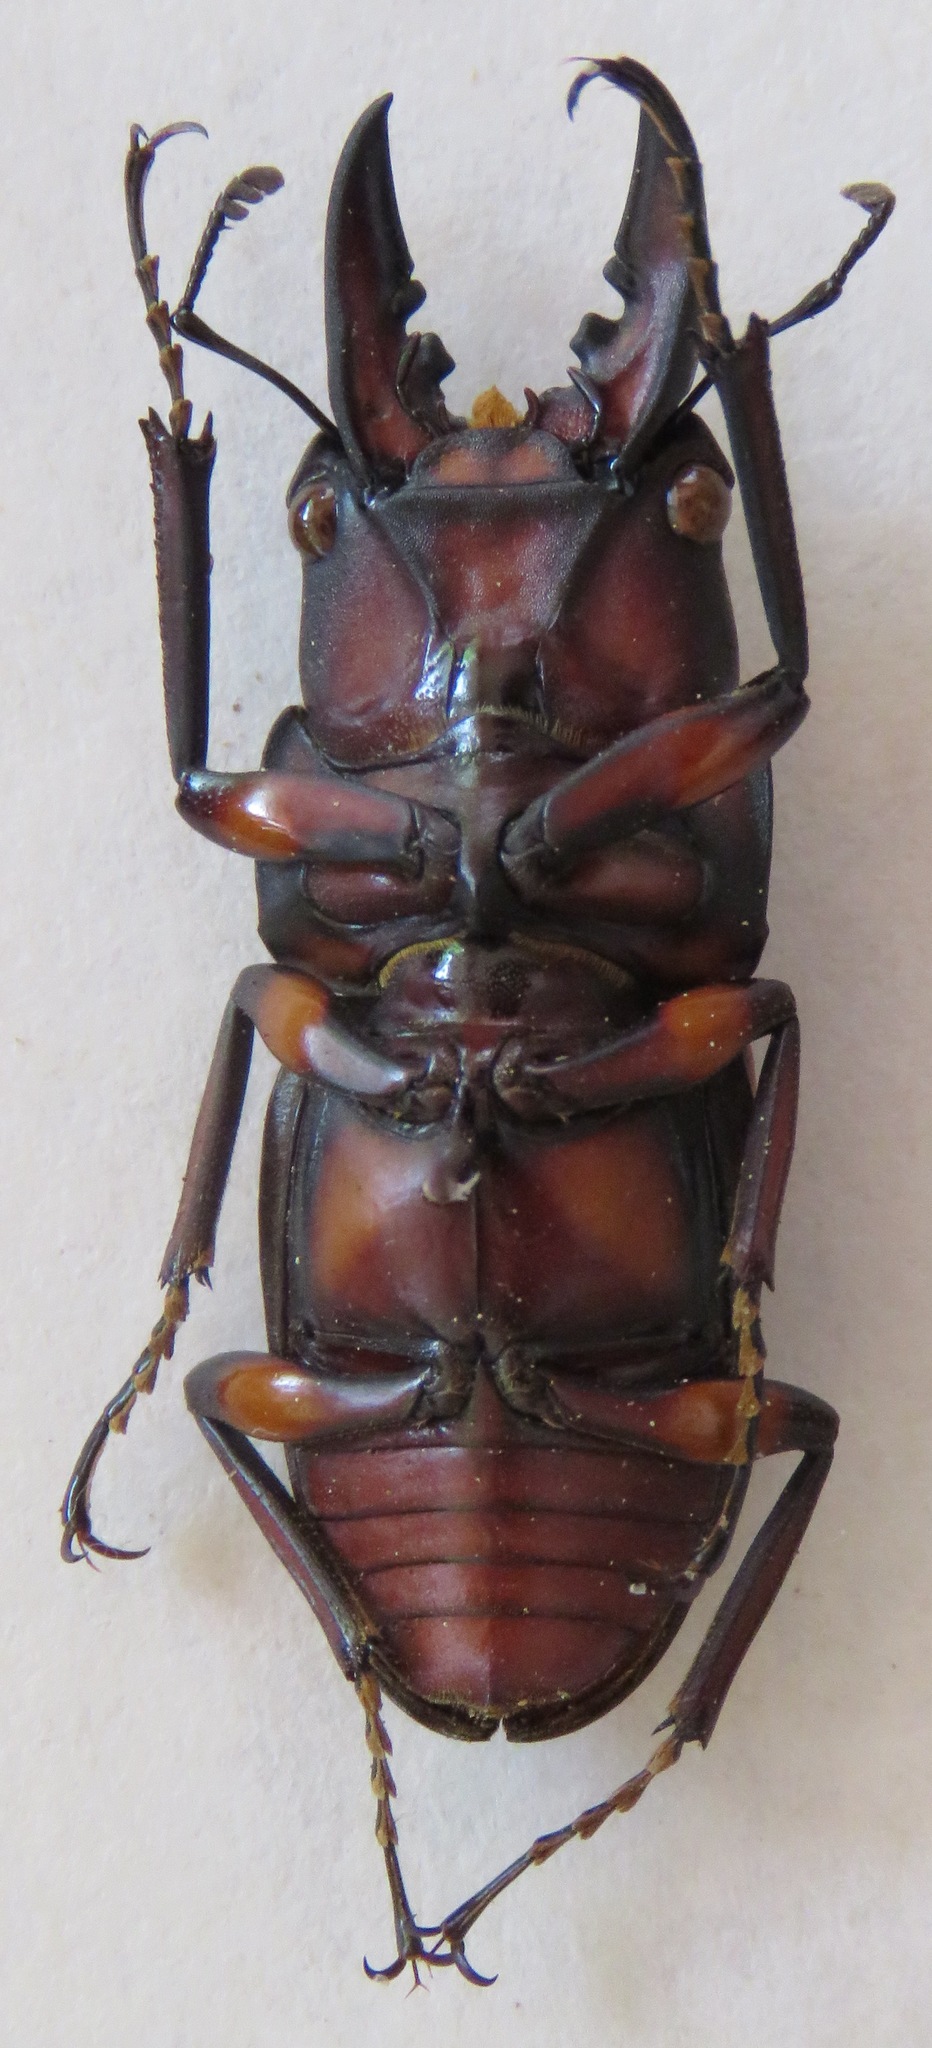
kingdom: Animalia
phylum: Arthropoda
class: Insecta
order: Coleoptera
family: Lucanidae
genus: Prosopocoilus
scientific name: Prosopocoilus suturalis
